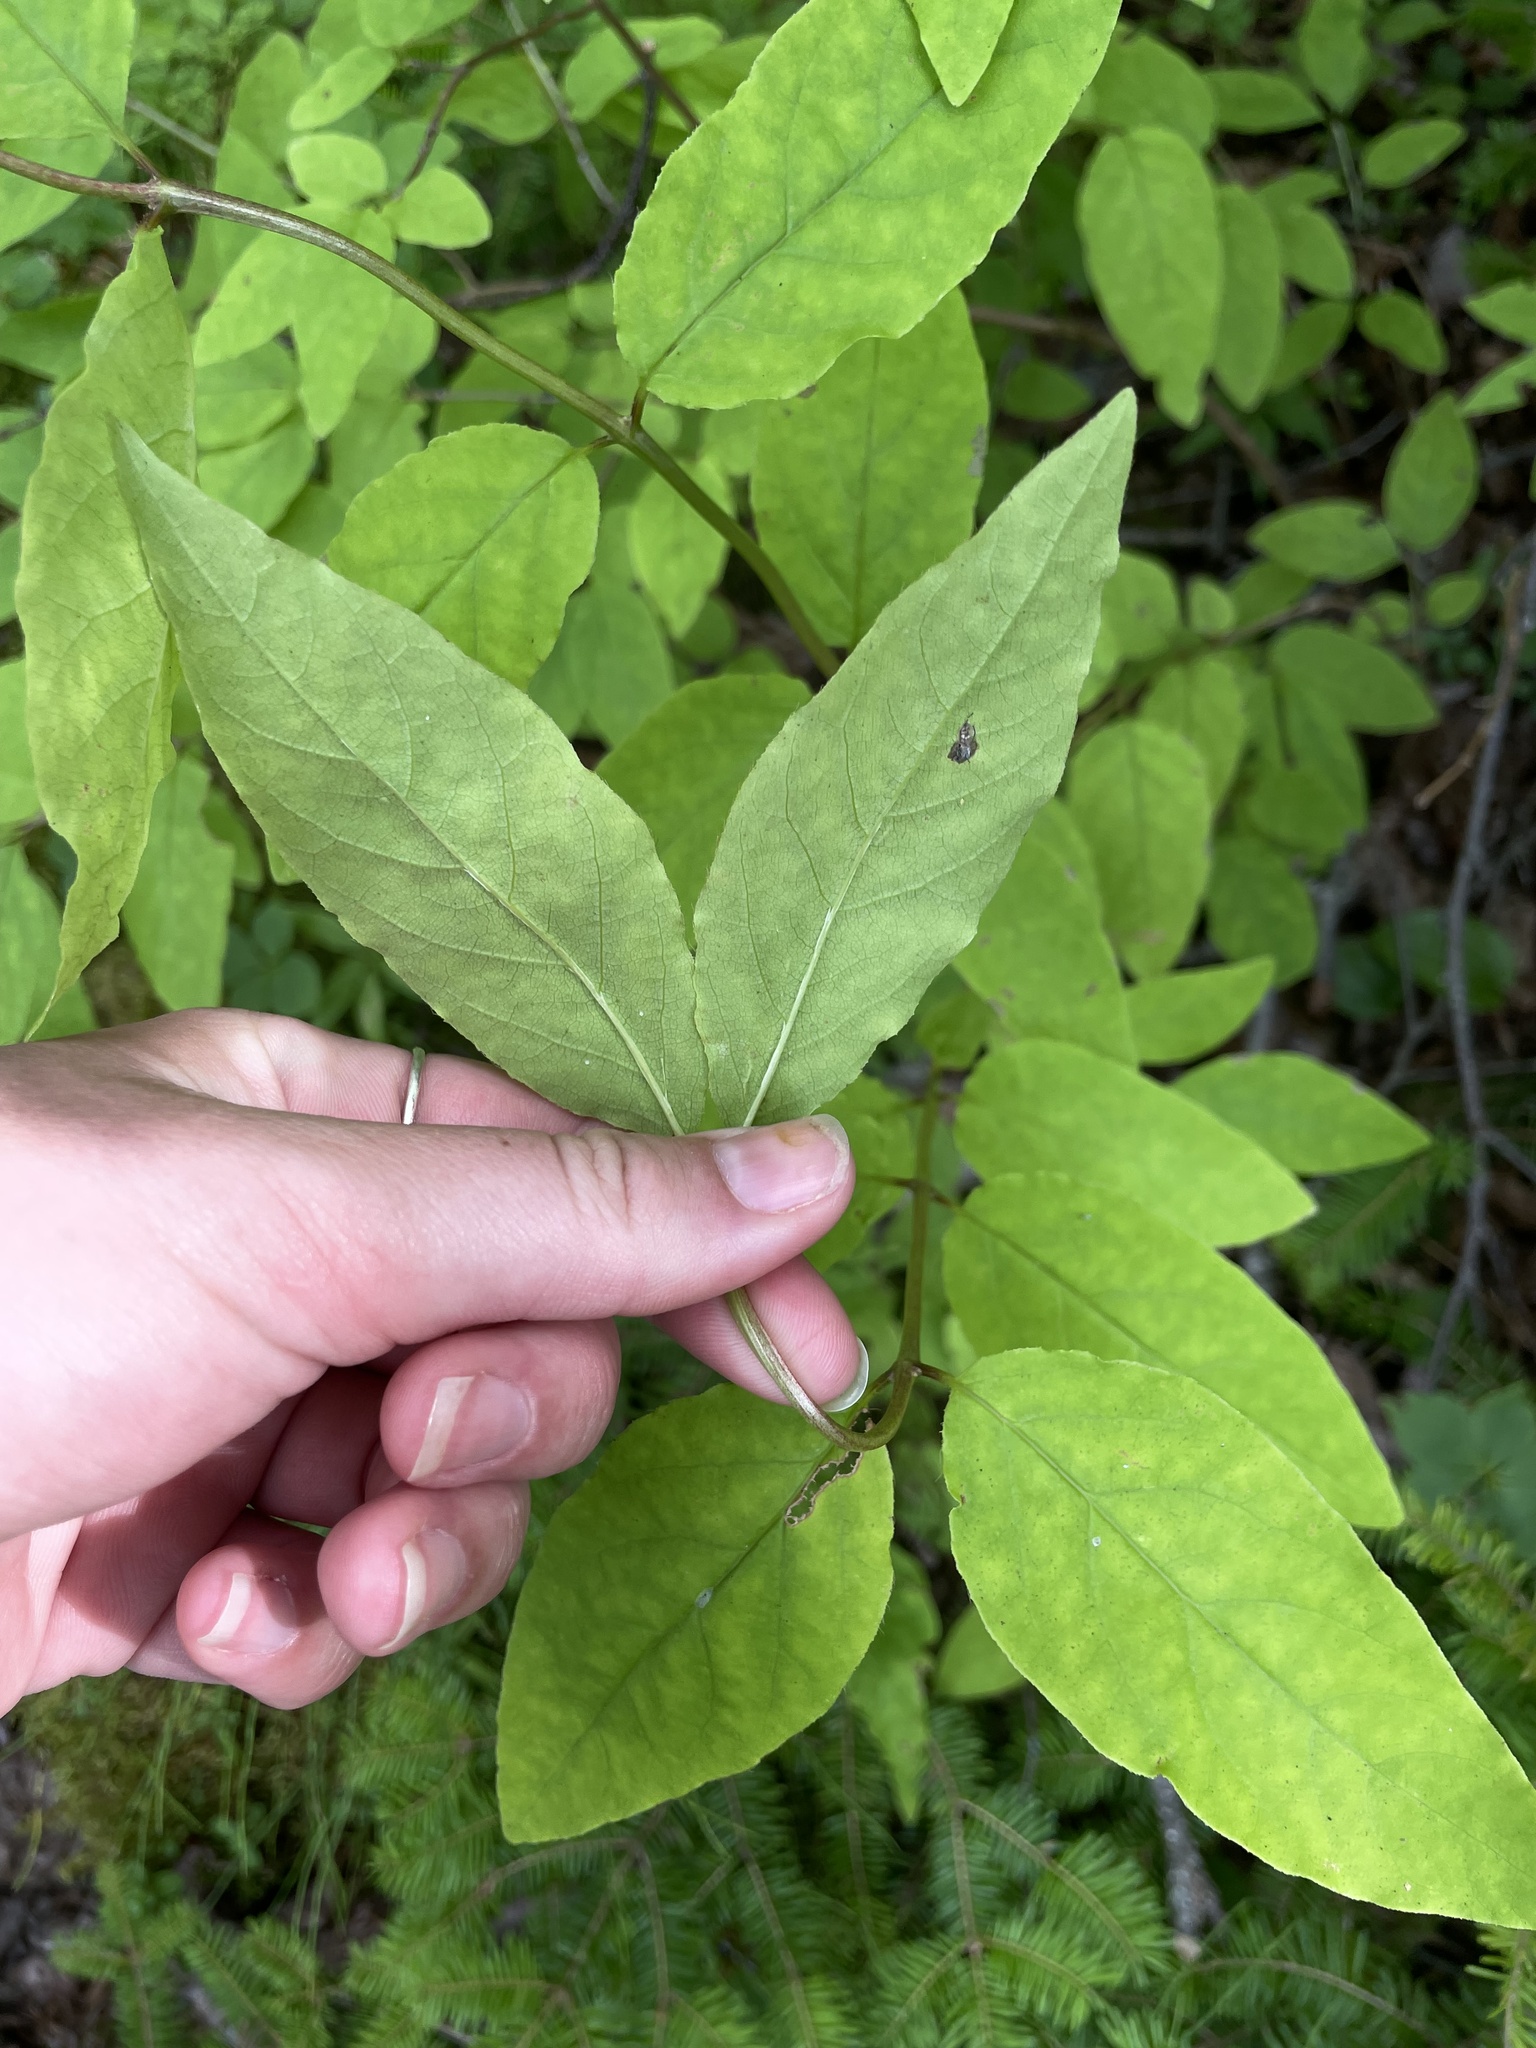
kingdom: Plantae
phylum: Tracheophyta
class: Magnoliopsida
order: Dipsacales
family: Caprifoliaceae
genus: Lonicera
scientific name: Lonicera canadensis
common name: American fly-honeysuckle
